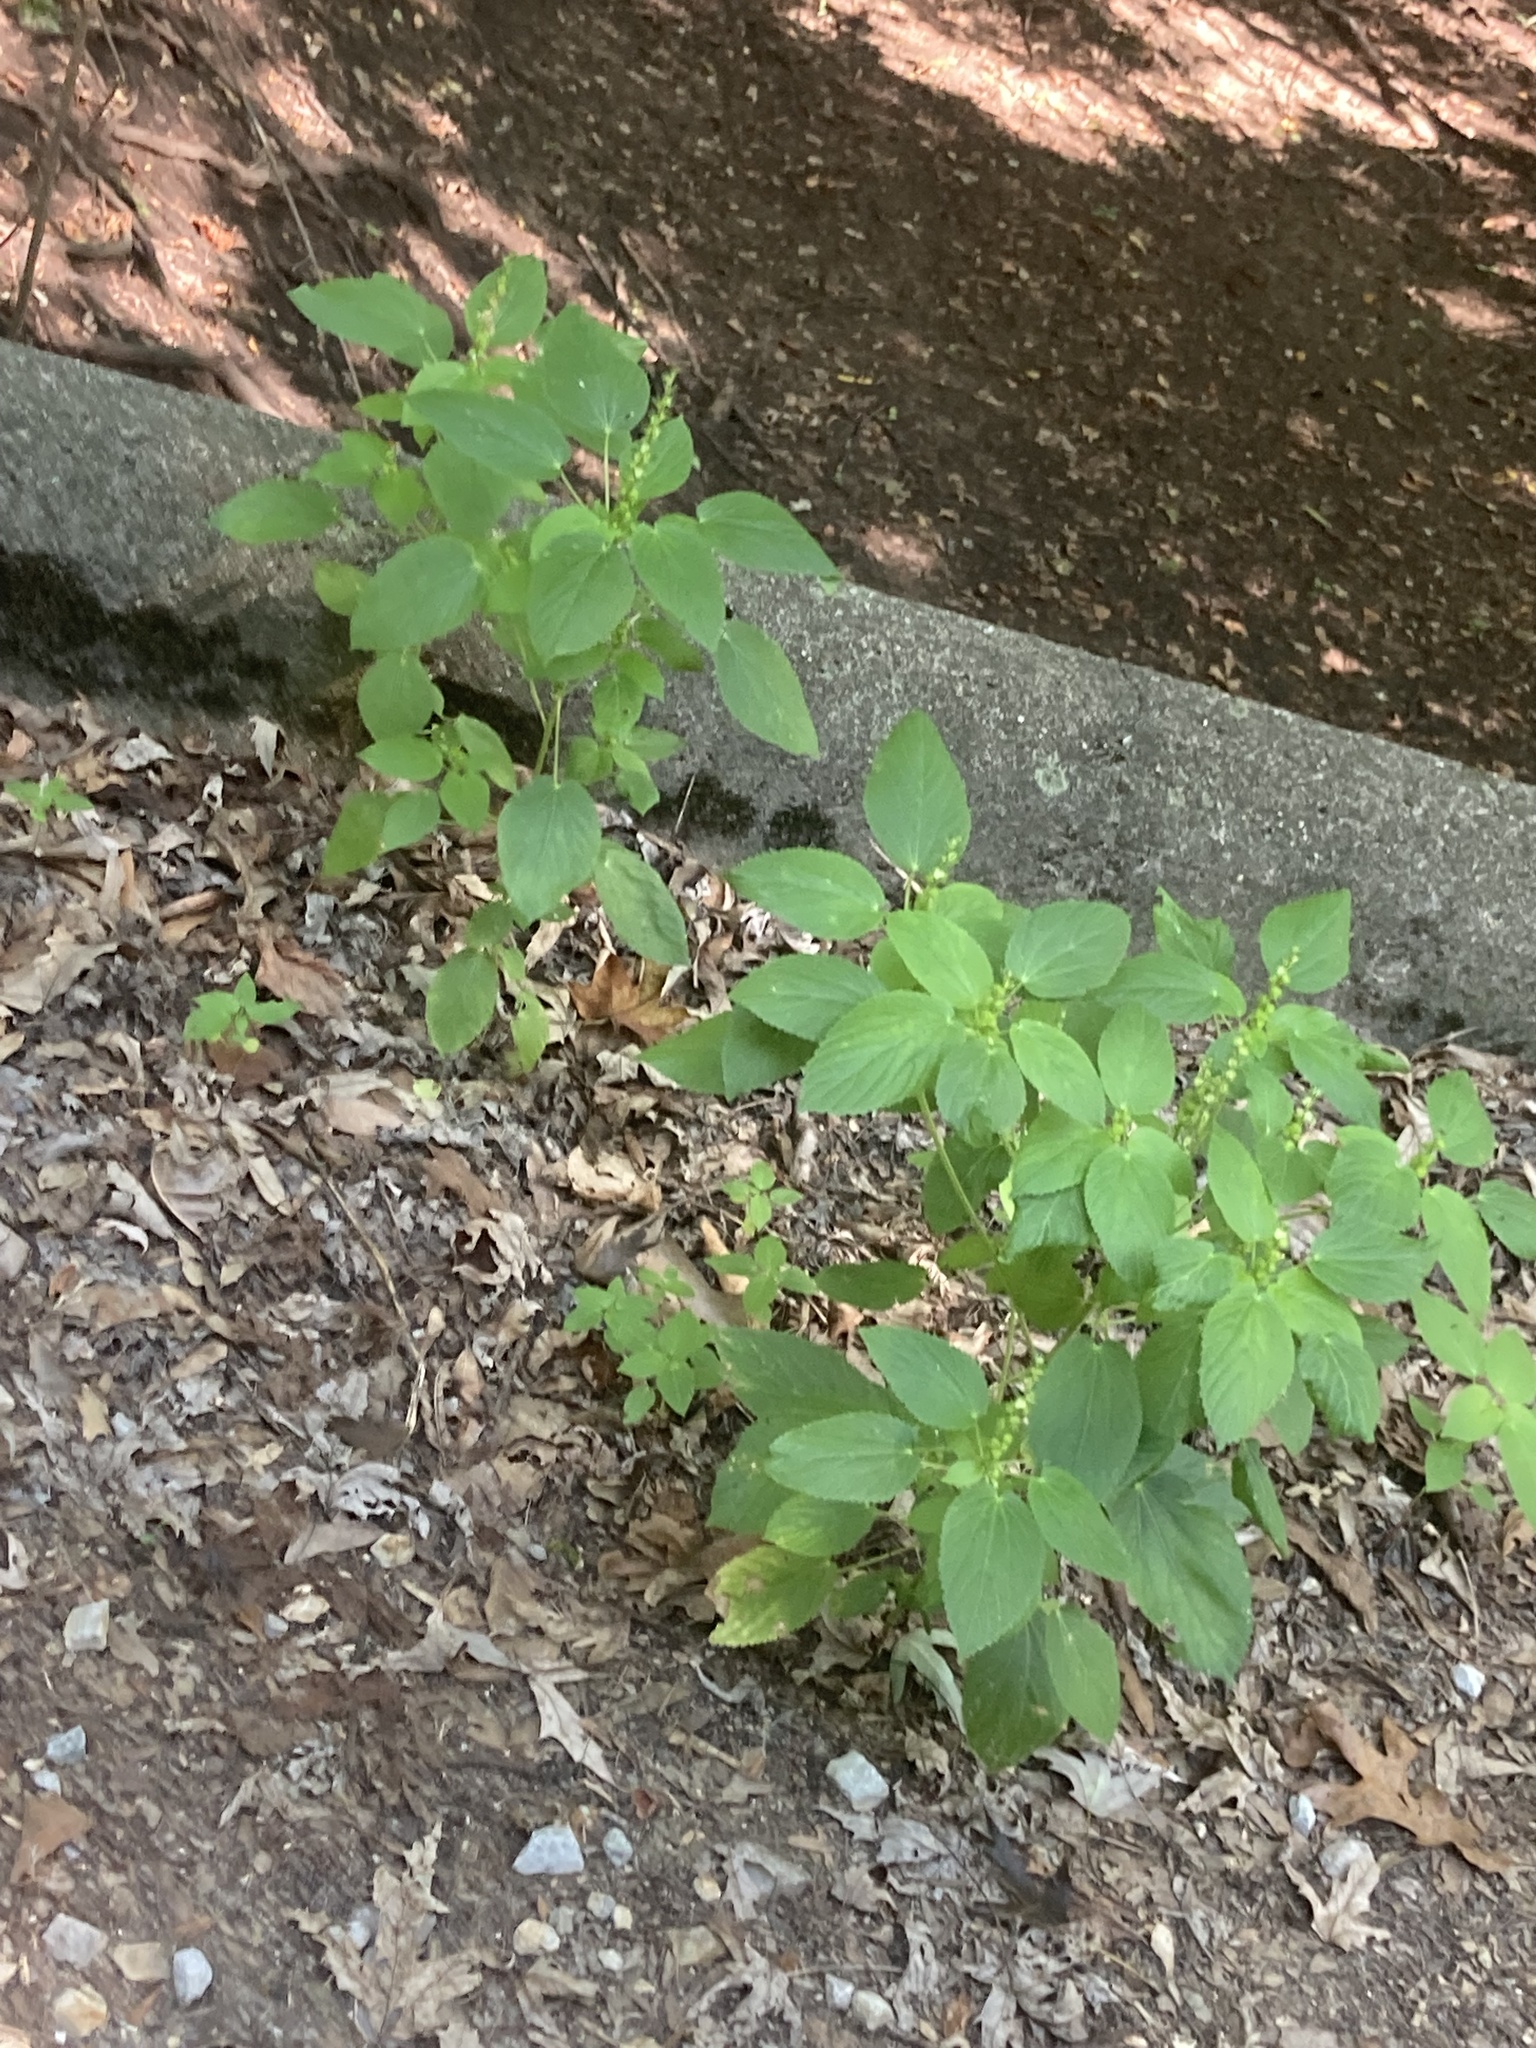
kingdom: Plantae
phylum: Tracheophyta
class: Magnoliopsida
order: Malpighiales
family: Euphorbiaceae
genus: Acalypha
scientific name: Acalypha ostryifolia
